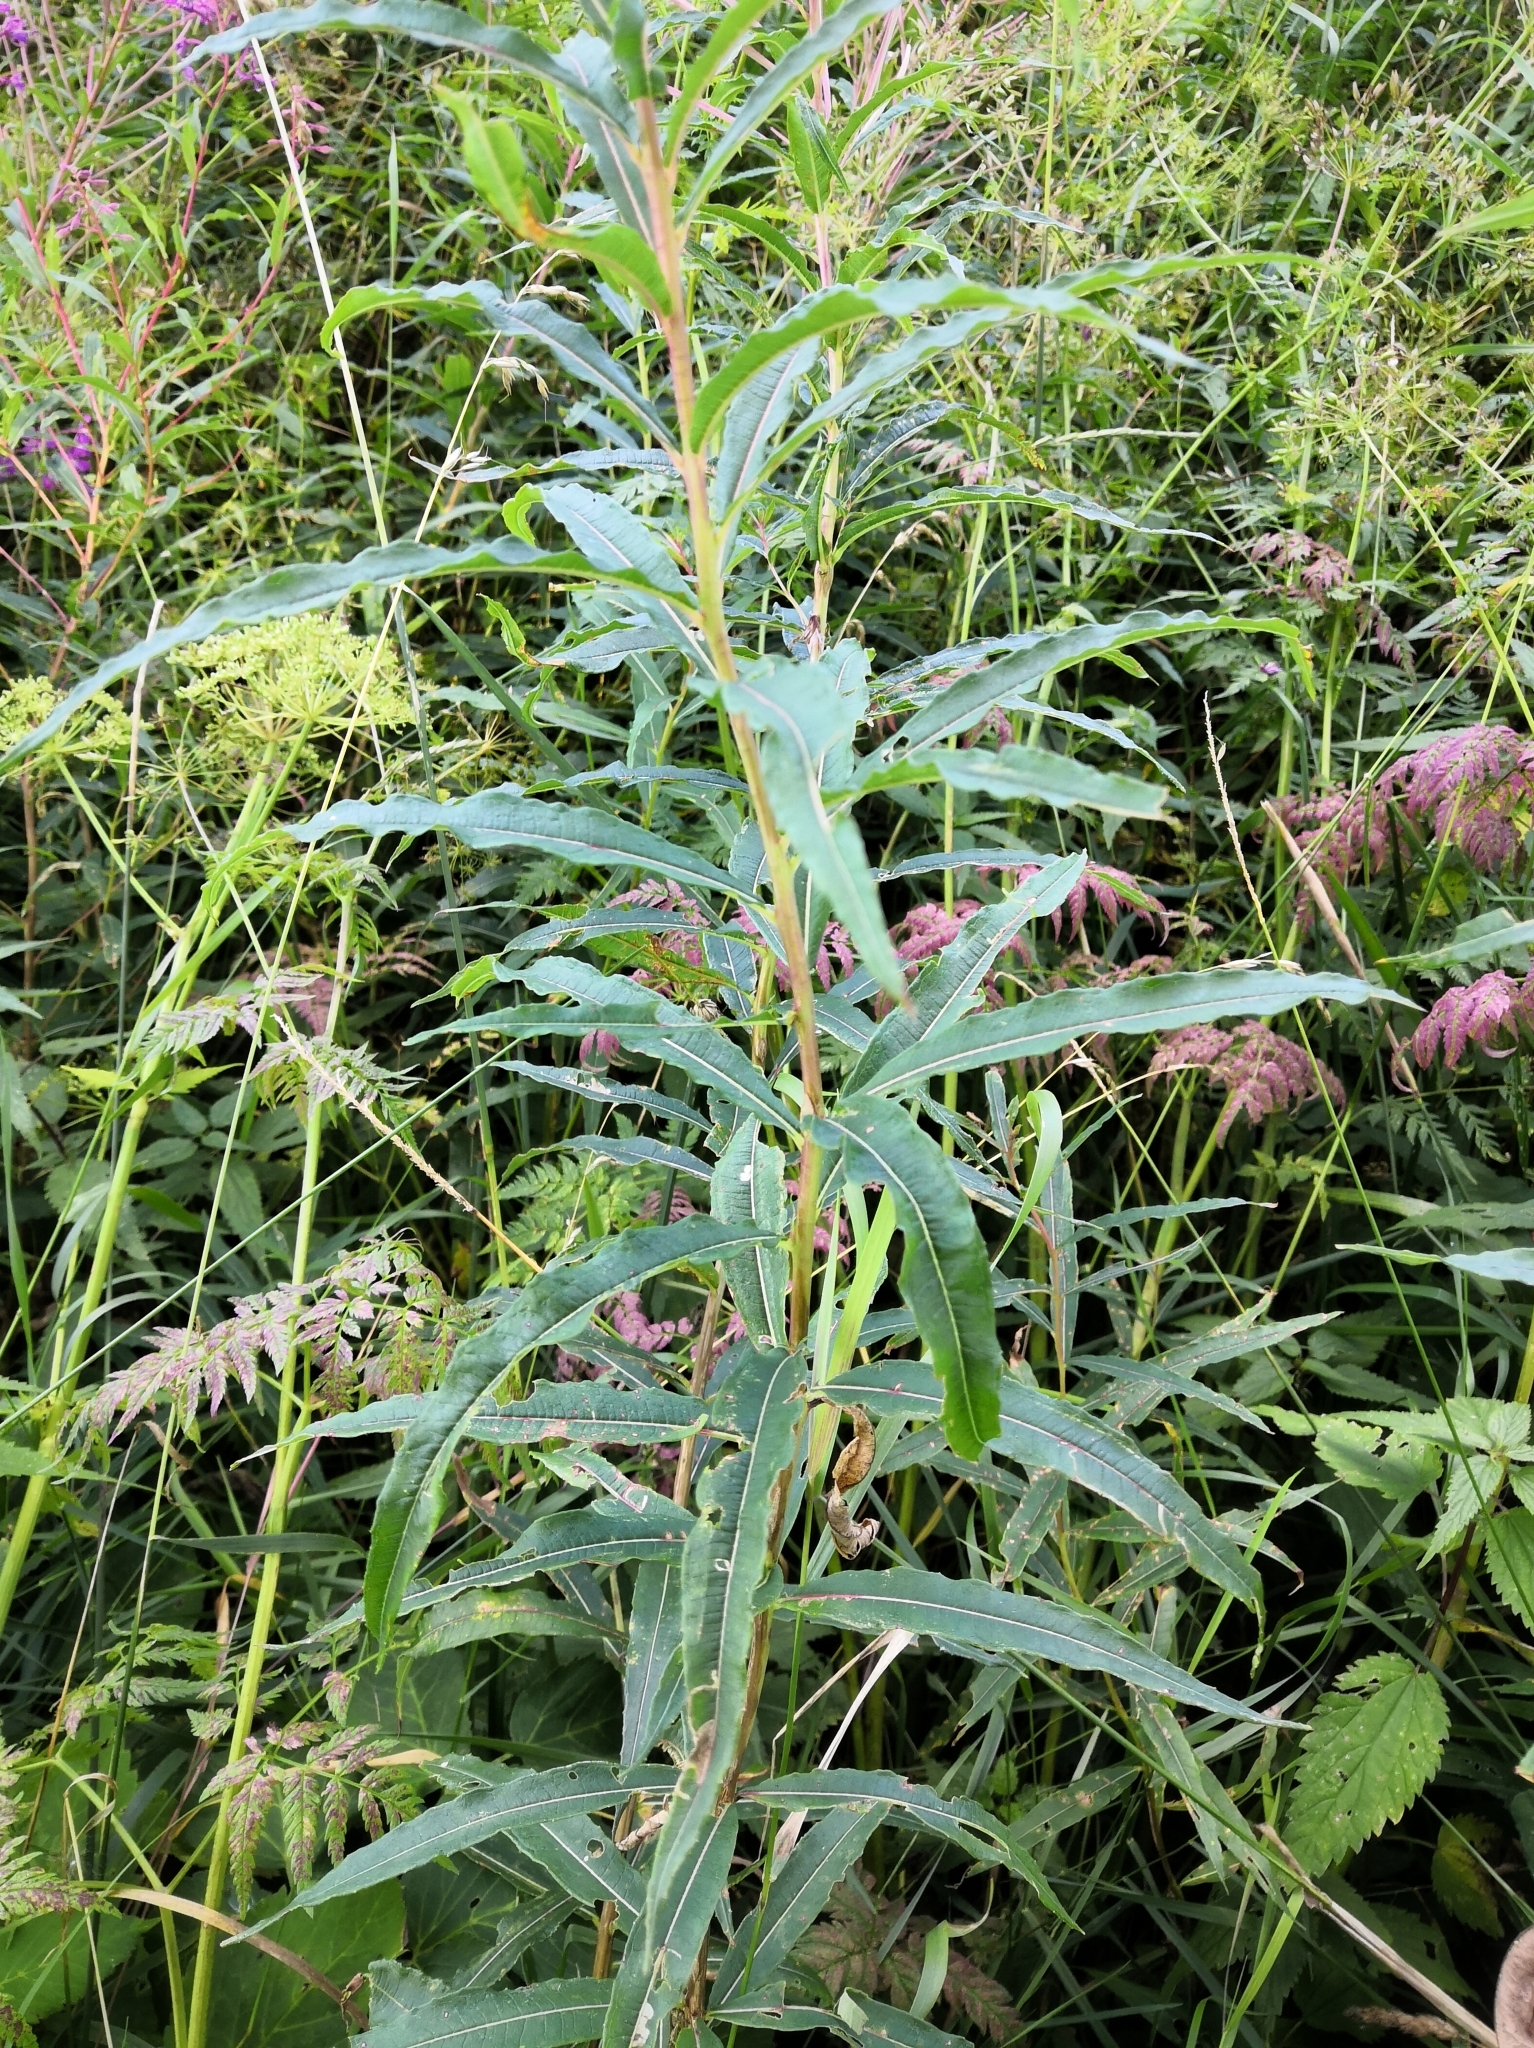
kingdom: Plantae
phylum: Tracheophyta
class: Magnoliopsida
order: Myrtales
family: Onagraceae
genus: Chamaenerion
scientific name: Chamaenerion angustifolium
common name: Fireweed
